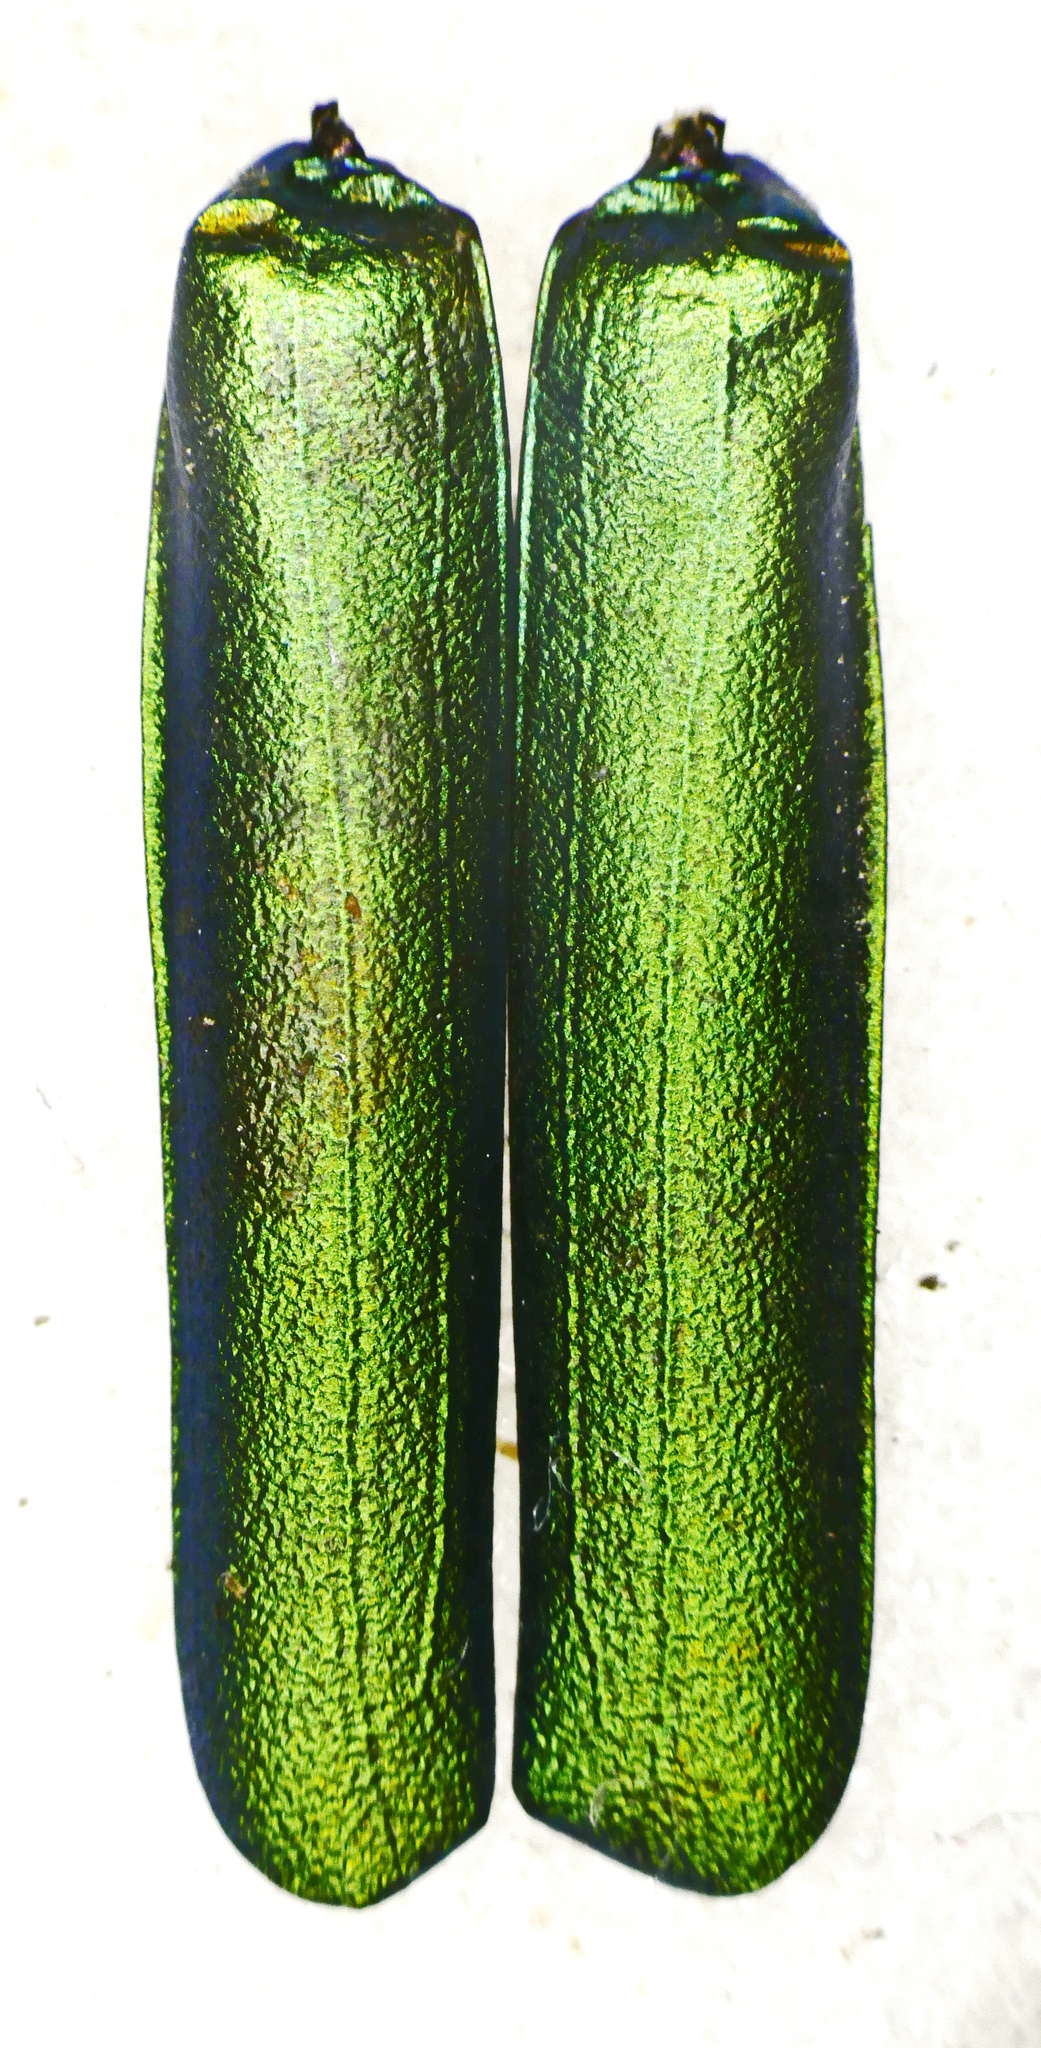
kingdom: Animalia
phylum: Arthropoda
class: Insecta
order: Coleoptera
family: Meloidae
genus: Lytta
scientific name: Lytta vesicatoria
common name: Spanish fly
